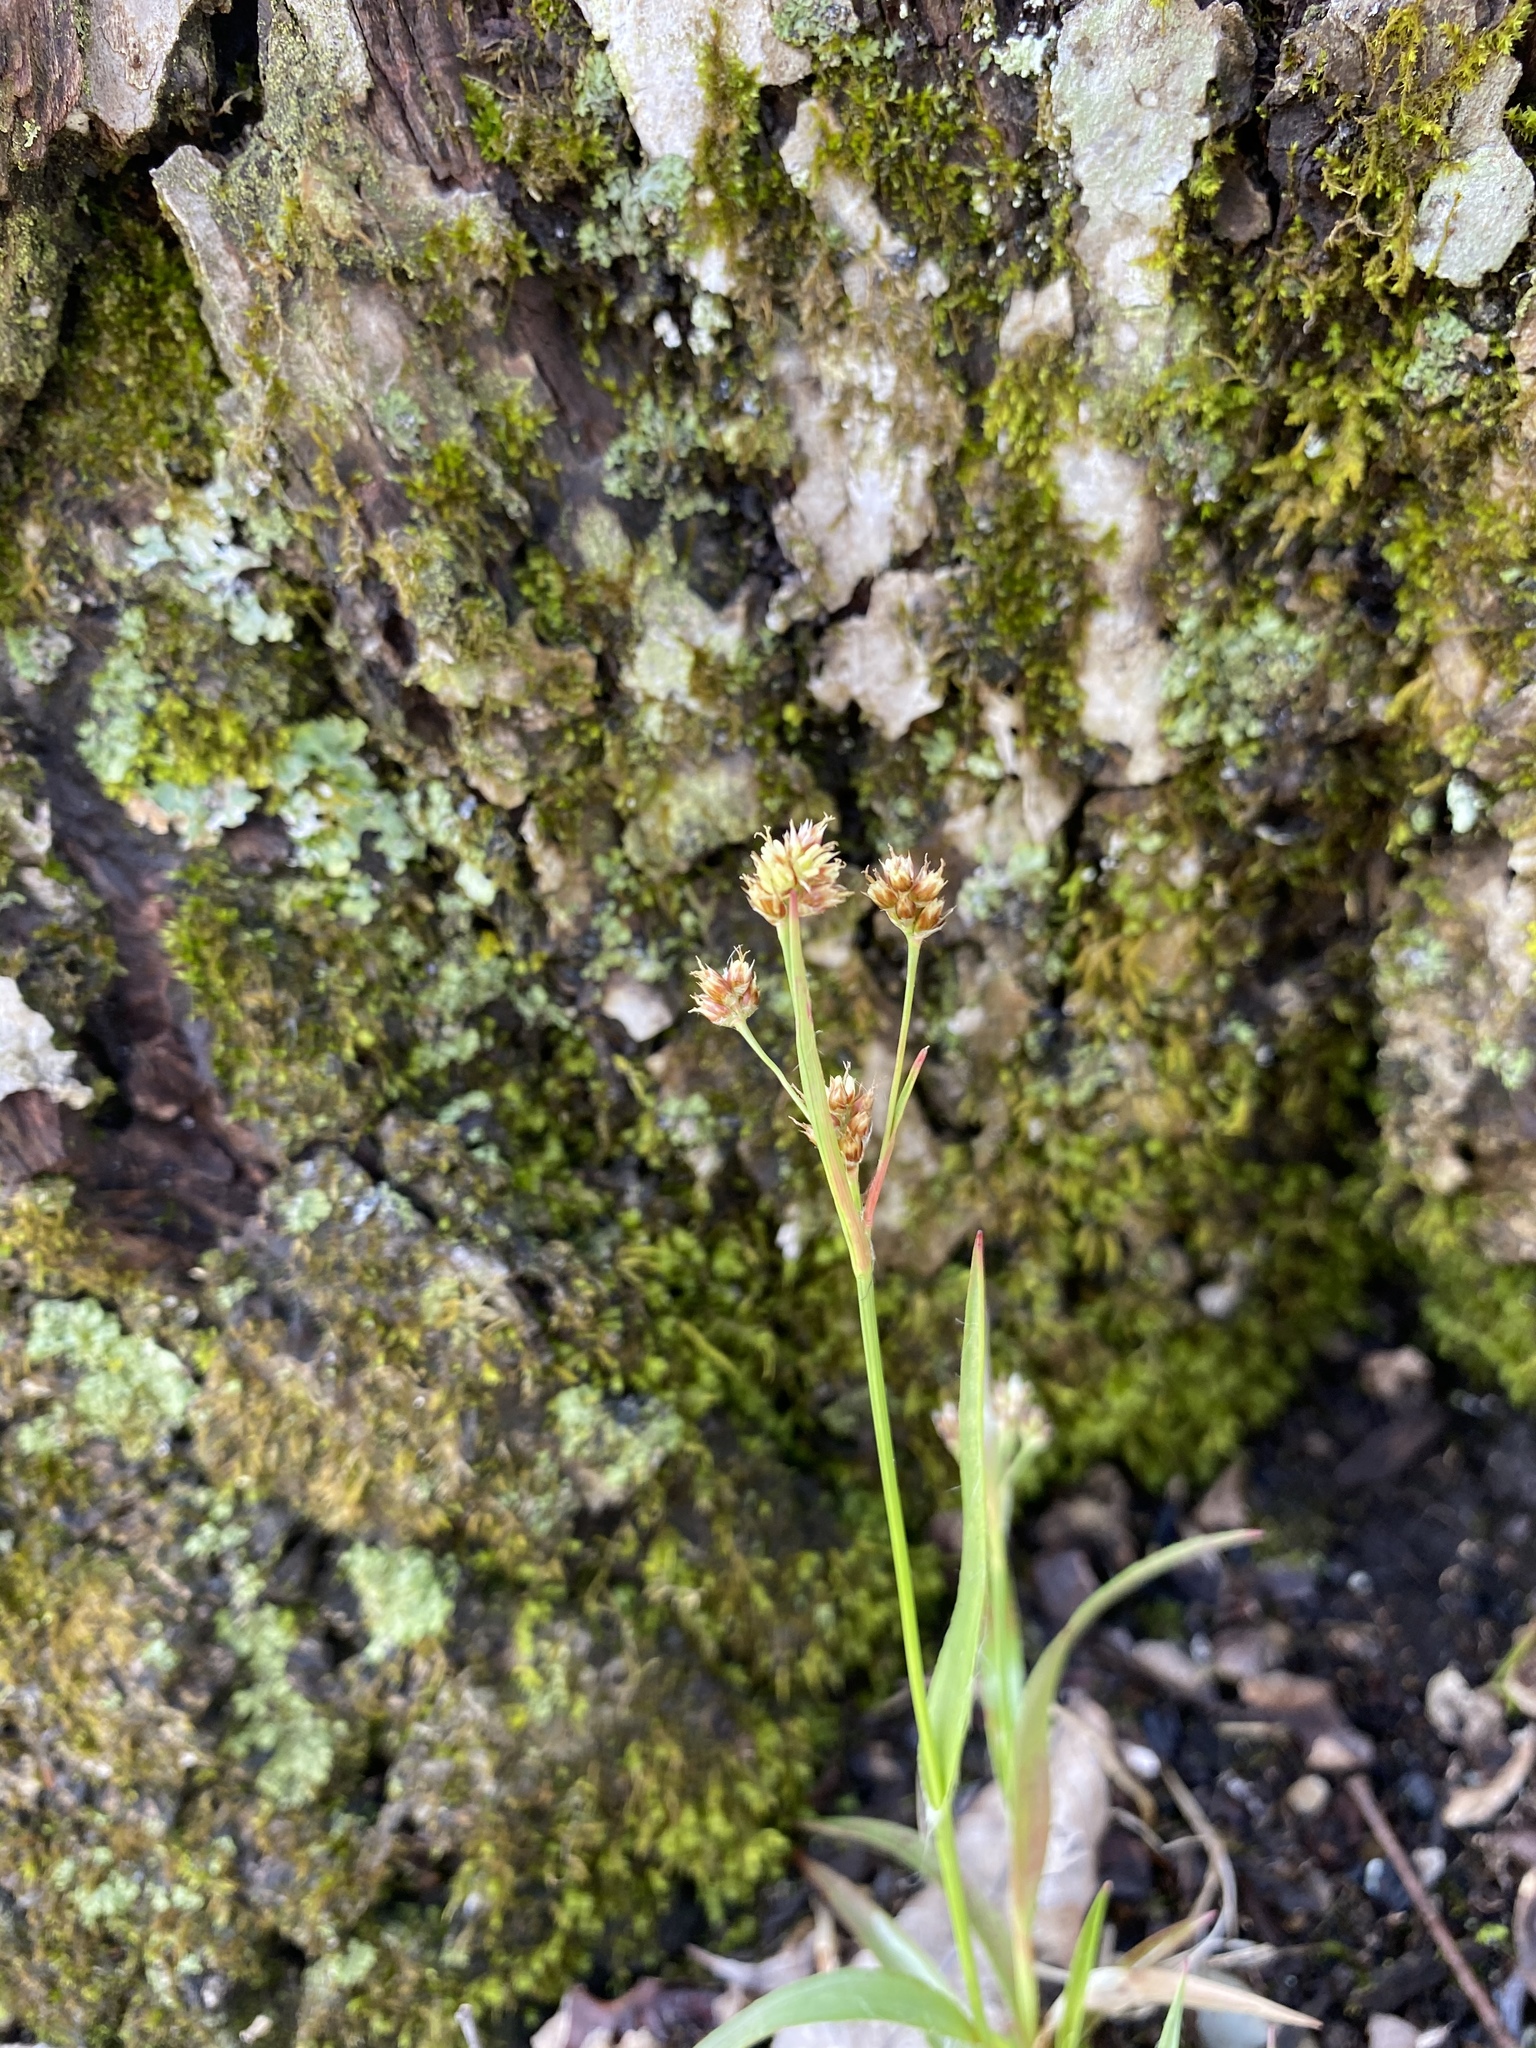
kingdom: Plantae
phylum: Tracheophyta
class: Liliopsida
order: Poales
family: Juncaceae
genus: Luzula
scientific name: Luzula multiflora
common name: Heath wood-rush
